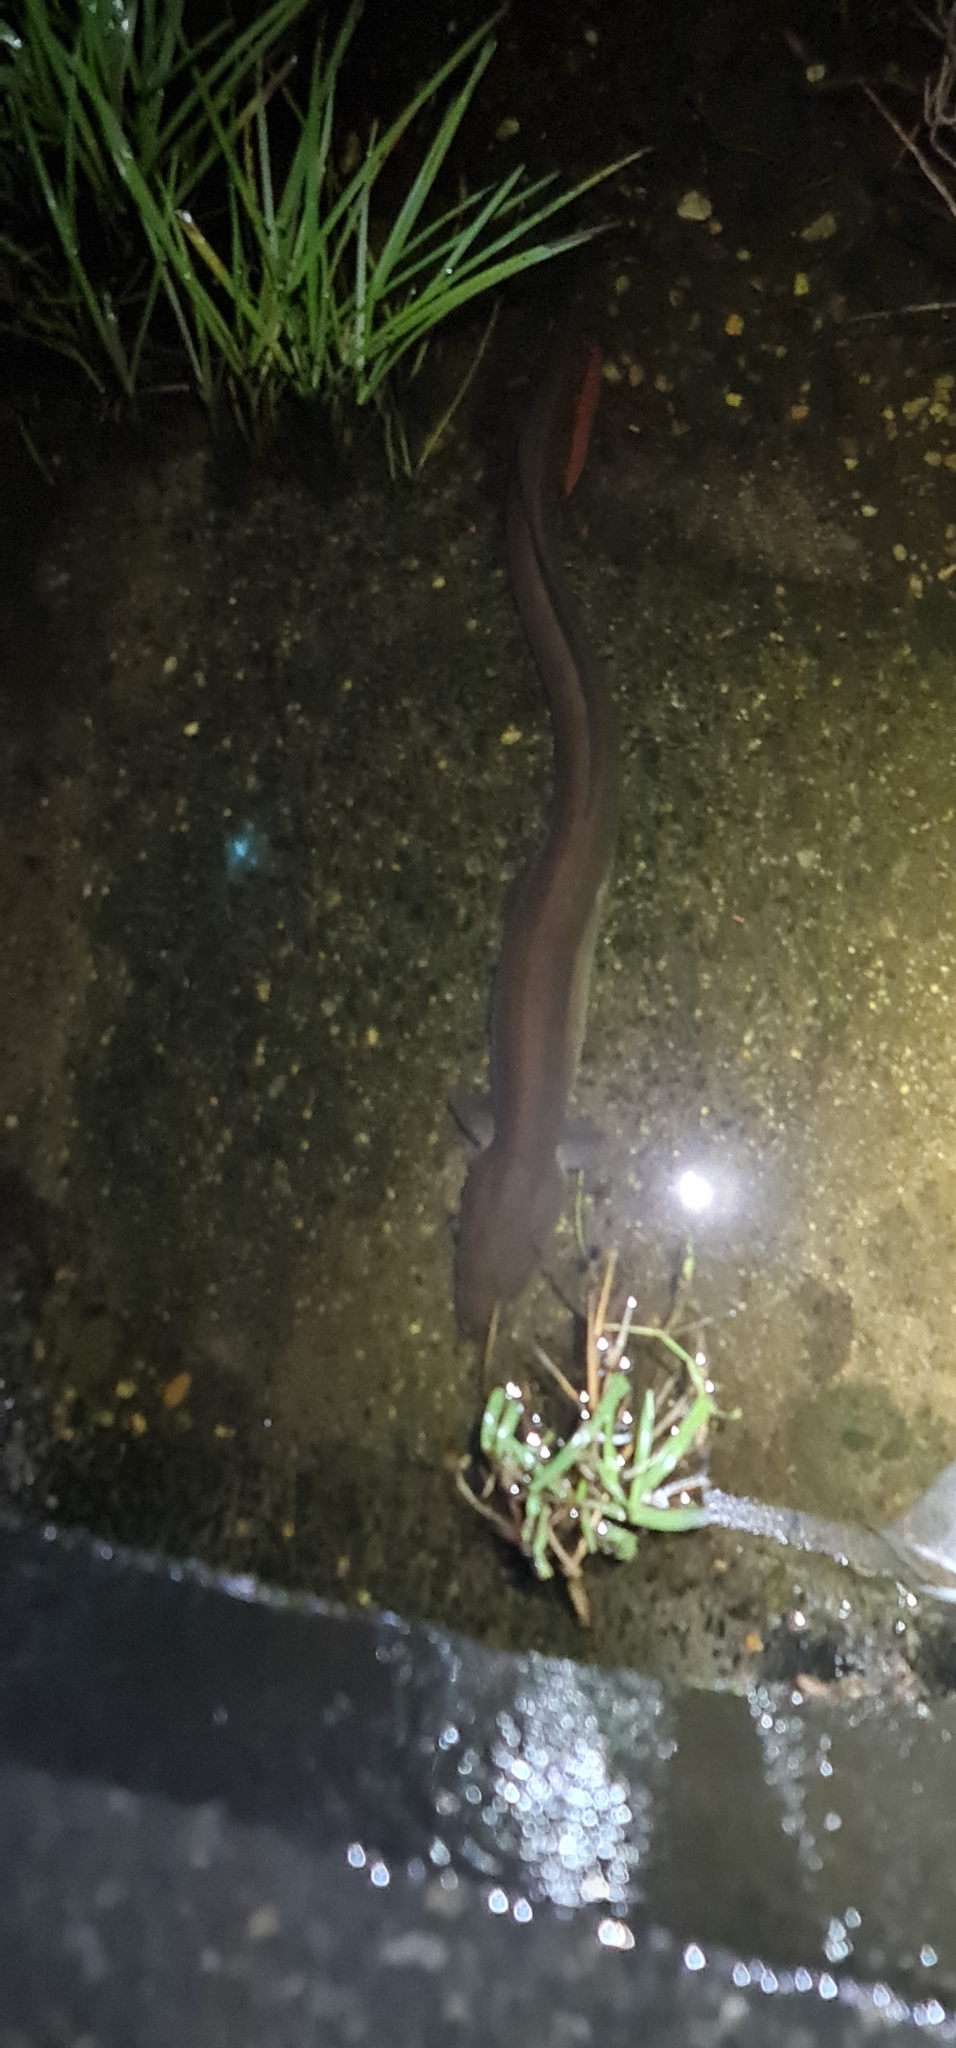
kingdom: Animalia
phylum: Chordata
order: Anguilliformes
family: Anguillidae
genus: Anguilla
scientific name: Anguilla obscura
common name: Pacific short-finned eel
